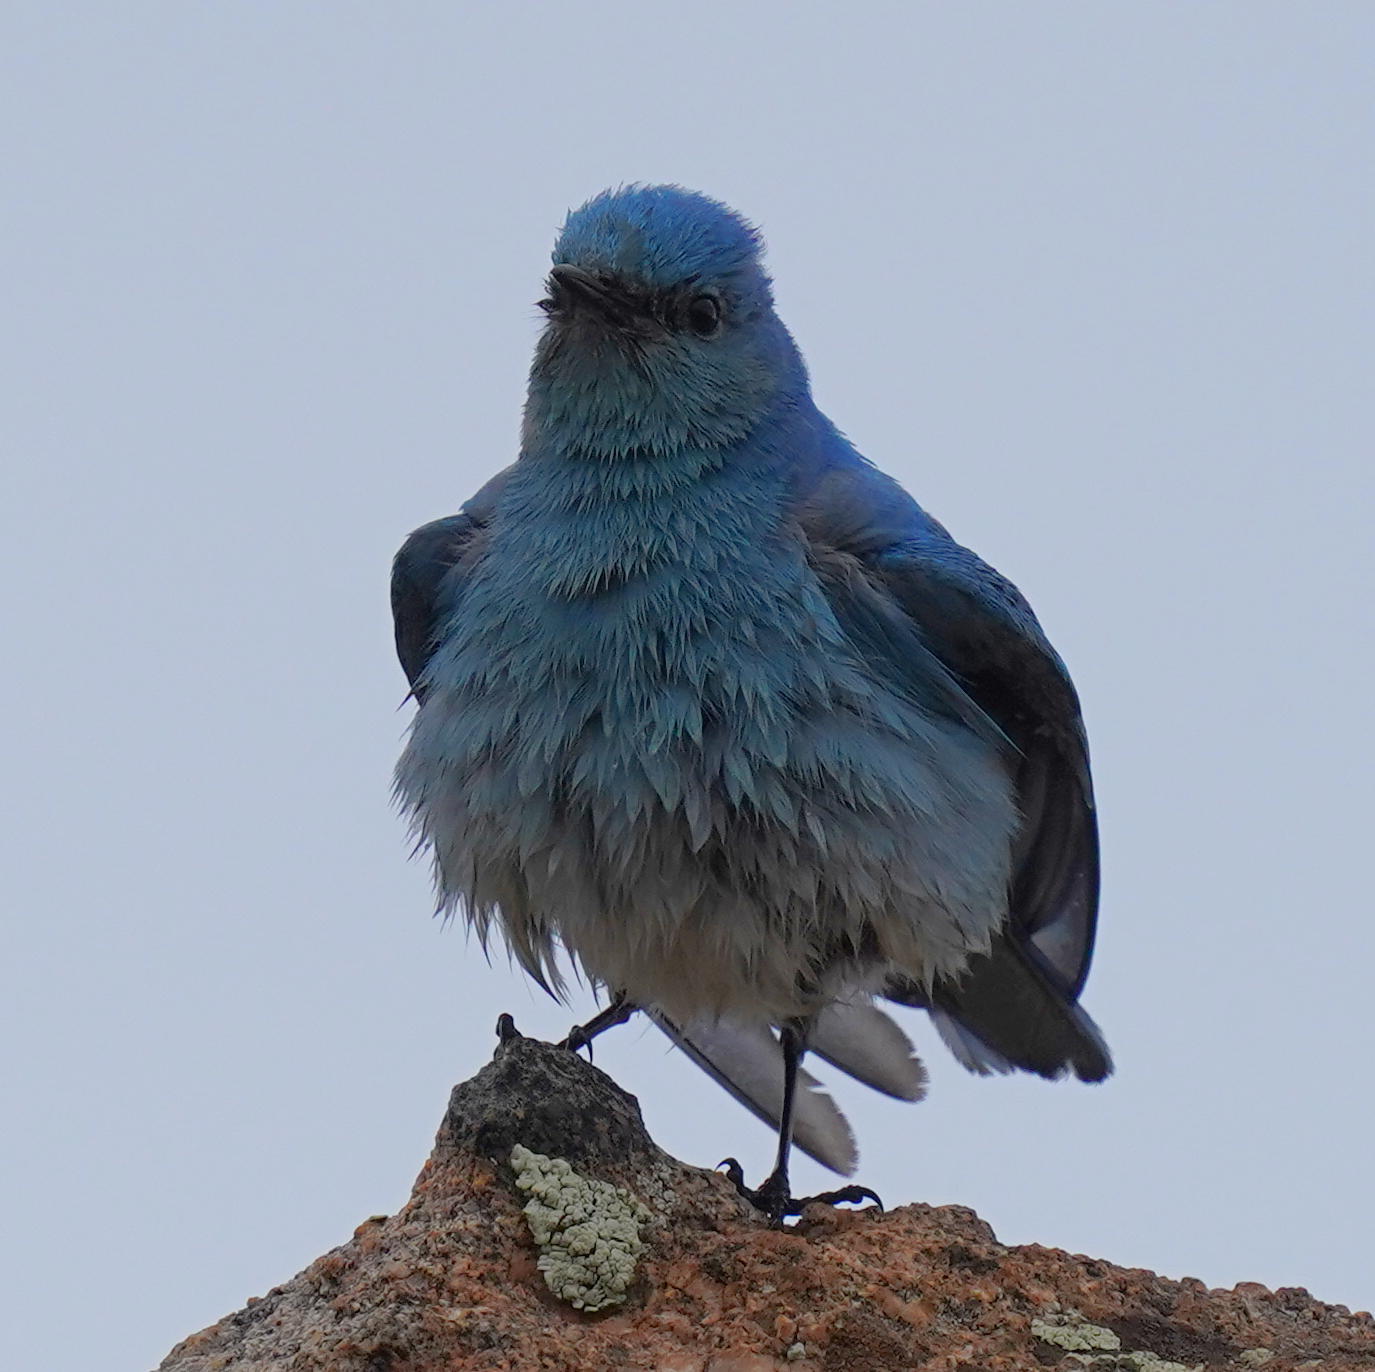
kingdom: Animalia
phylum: Chordata
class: Aves
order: Passeriformes
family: Turdidae
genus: Sialia
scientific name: Sialia currucoides
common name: Mountain bluebird
